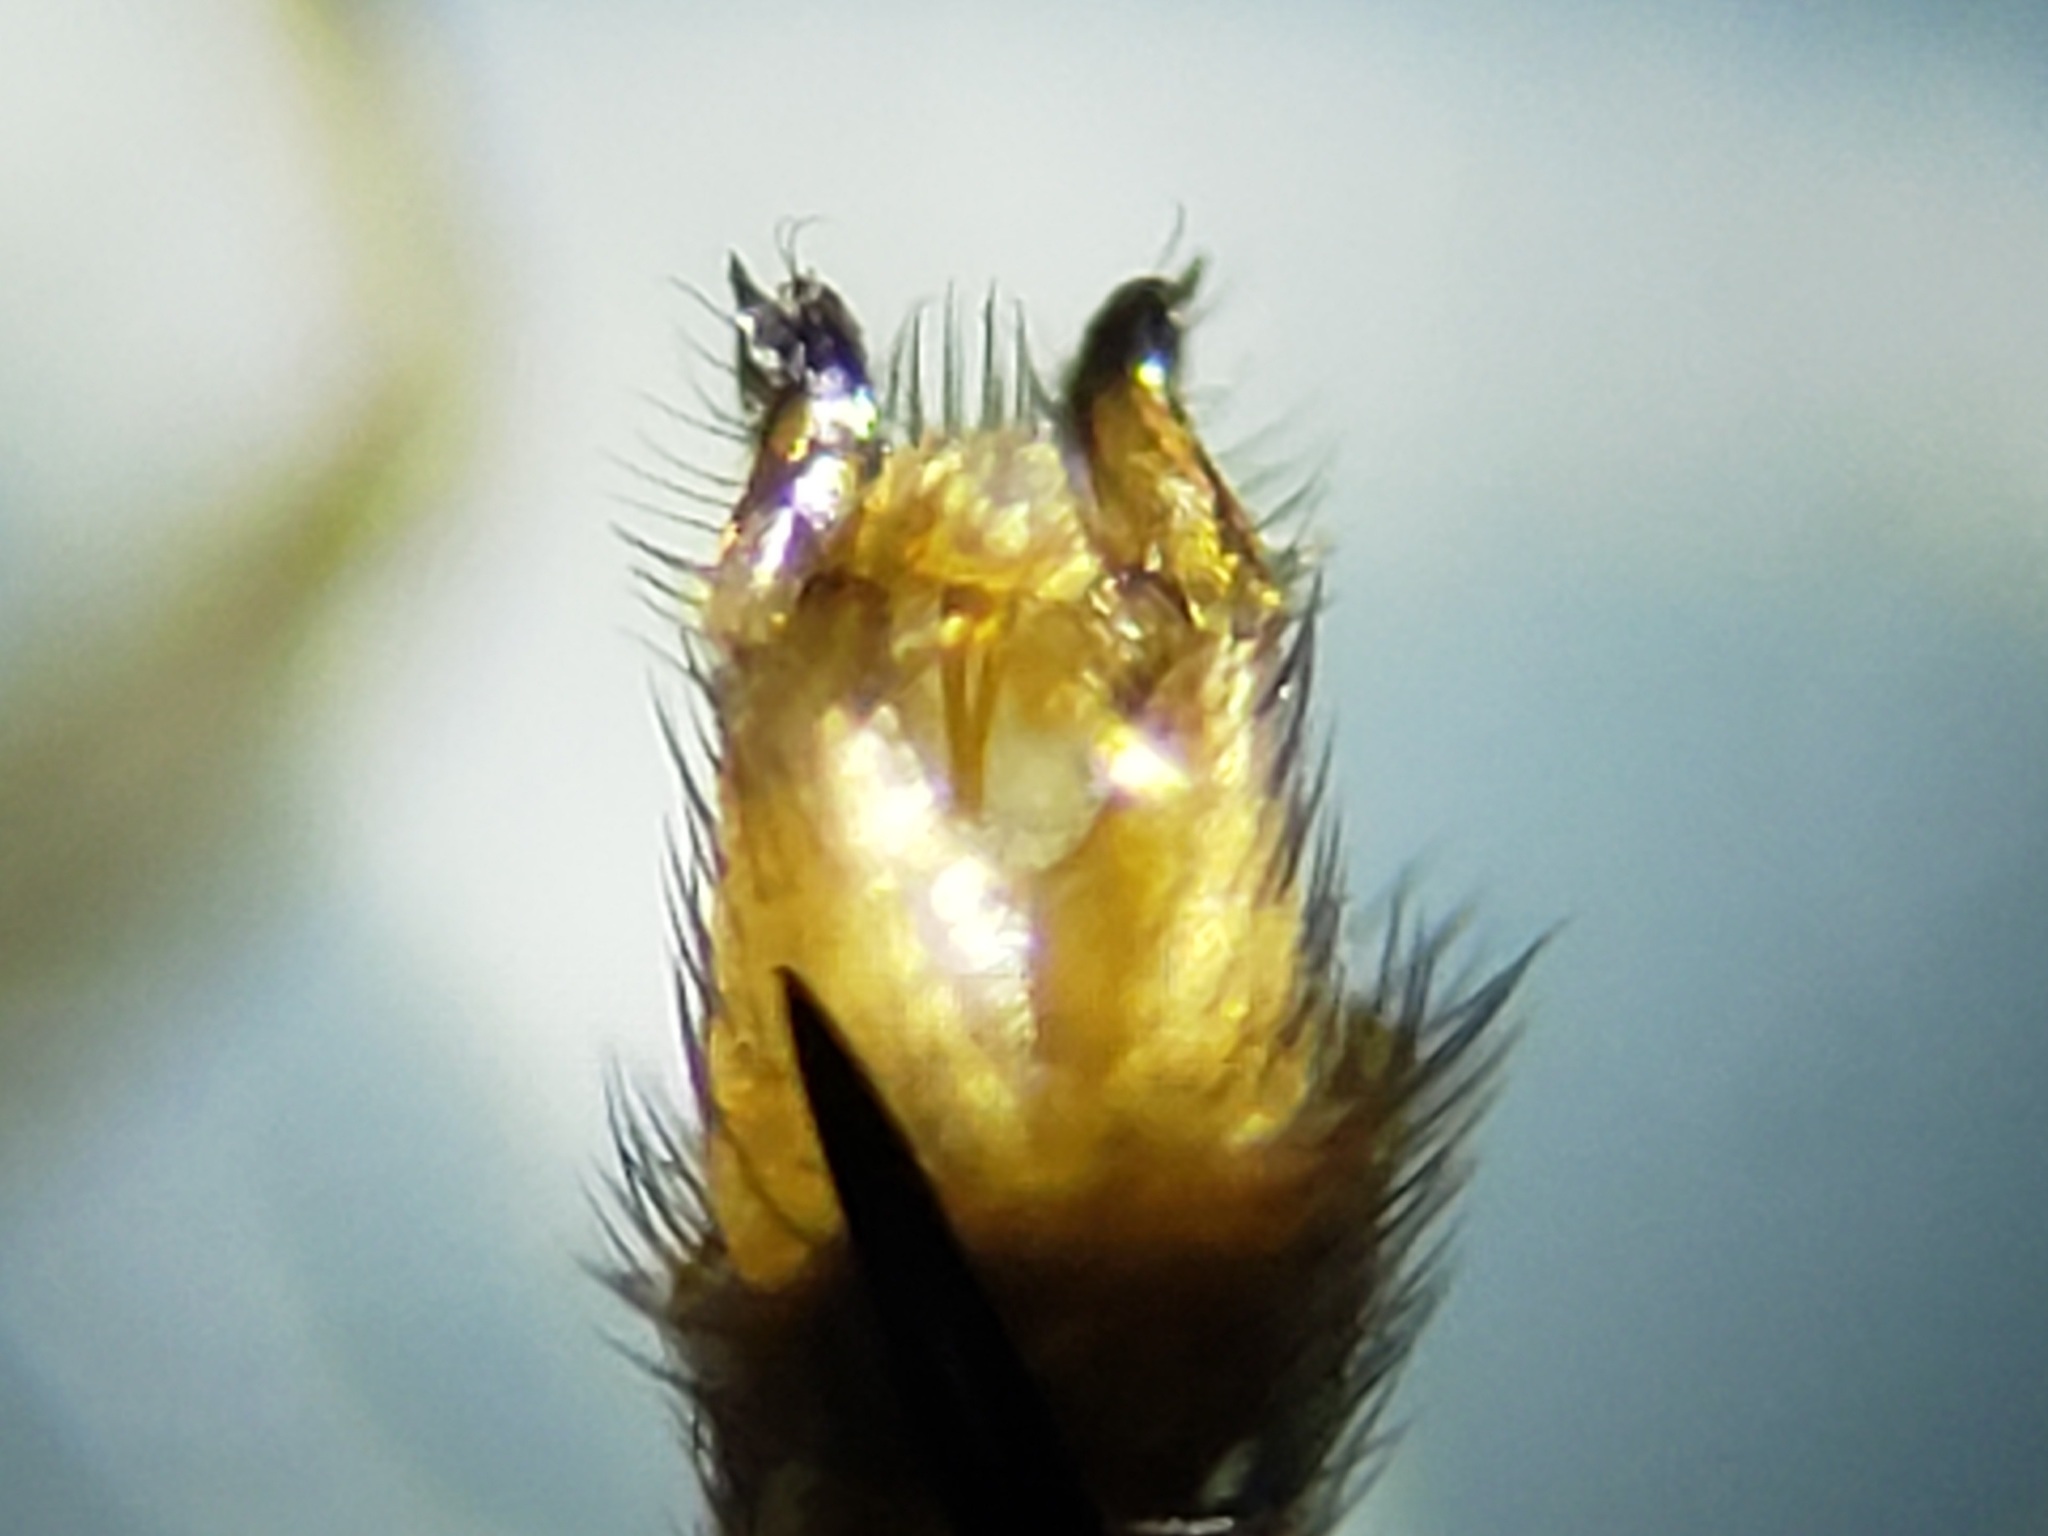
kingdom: Animalia
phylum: Chordata
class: Aves
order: Pelecaniformes
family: Ardeidae
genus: Ardea
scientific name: Ardea herodias
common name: Great blue heron
